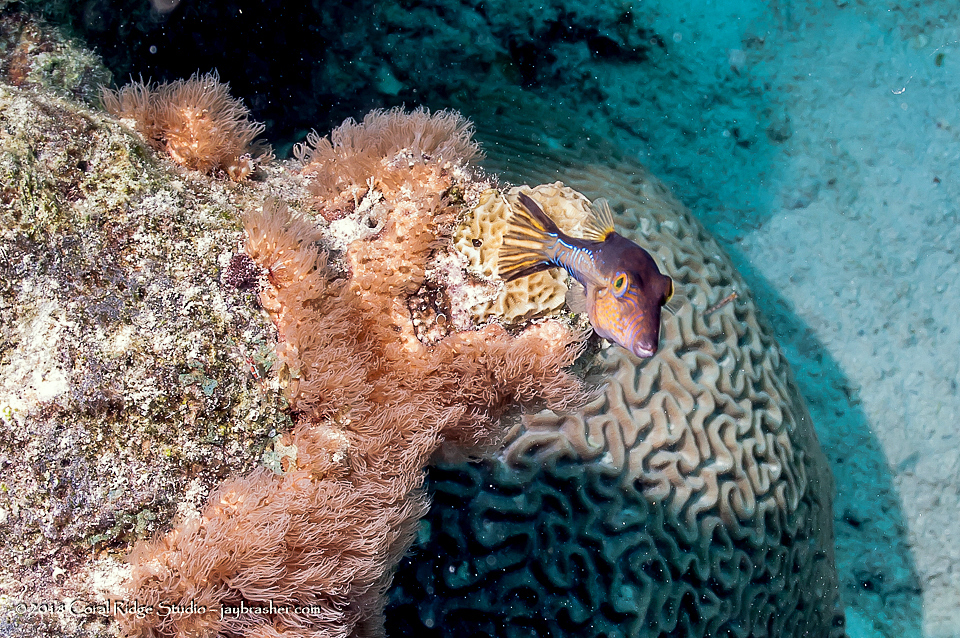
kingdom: Animalia
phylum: Chordata
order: Tetraodontiformes
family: Tetraodontidae
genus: Canthigaster
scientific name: Canthigaster rostrata
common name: Caribbean sharpnose-puffer
